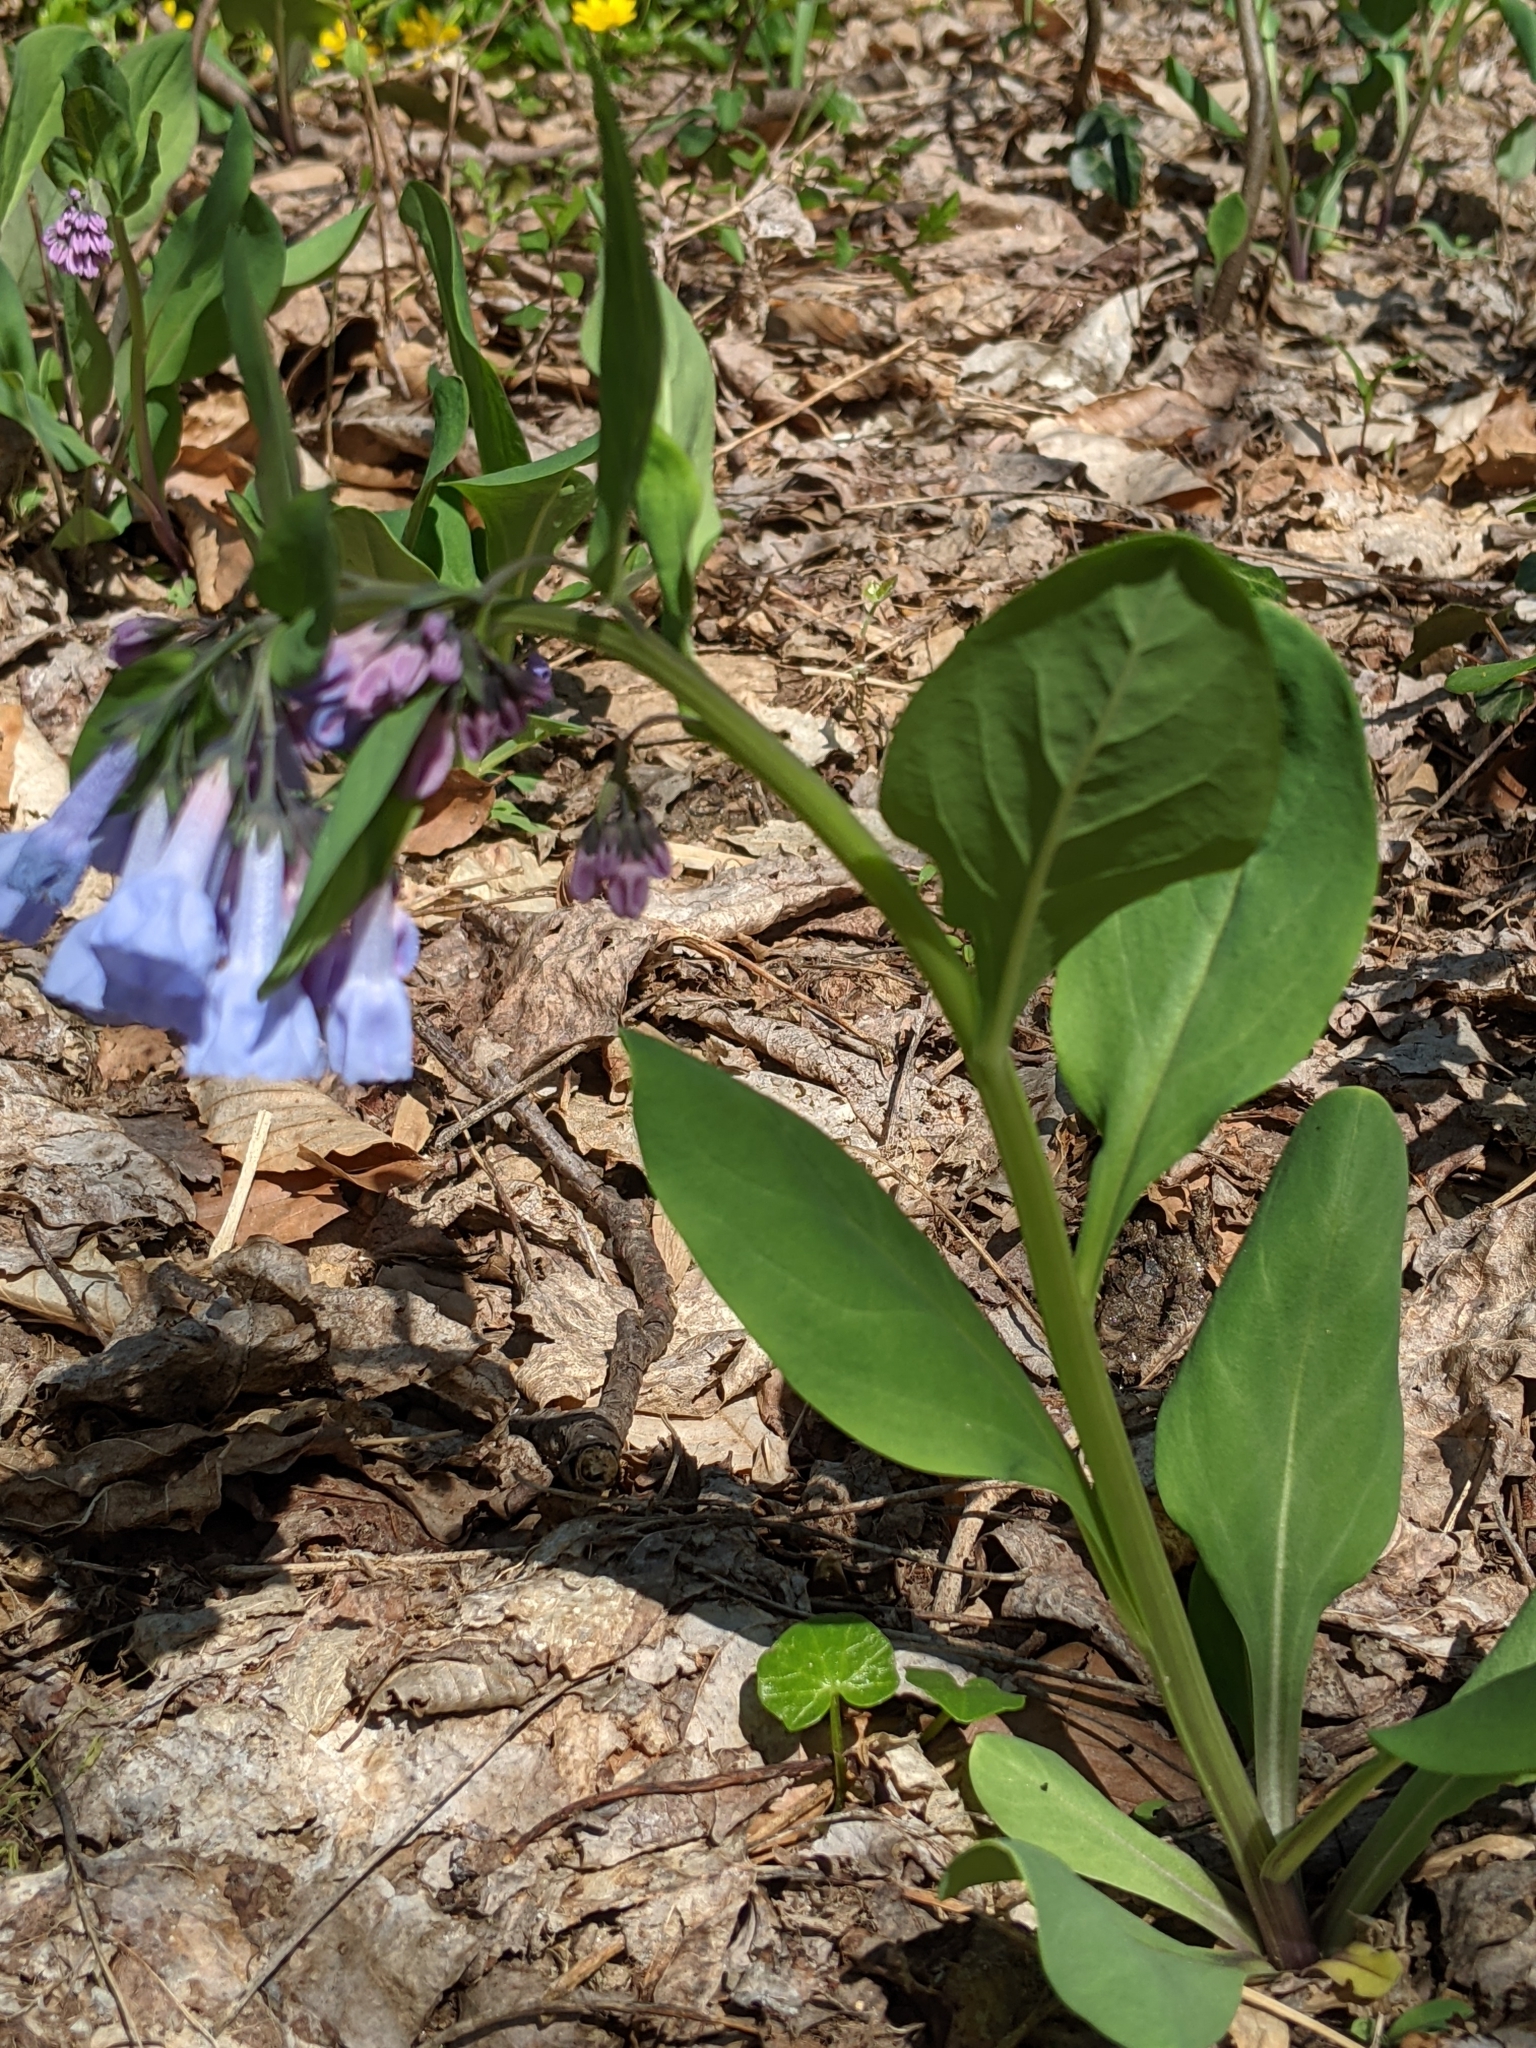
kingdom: Plantae
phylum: Tracheophyta
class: Magnoliopsida
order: Boraginales
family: Boraginaceae
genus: Mertensia
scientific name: Mertensia virginica
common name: Virginia bluebells
